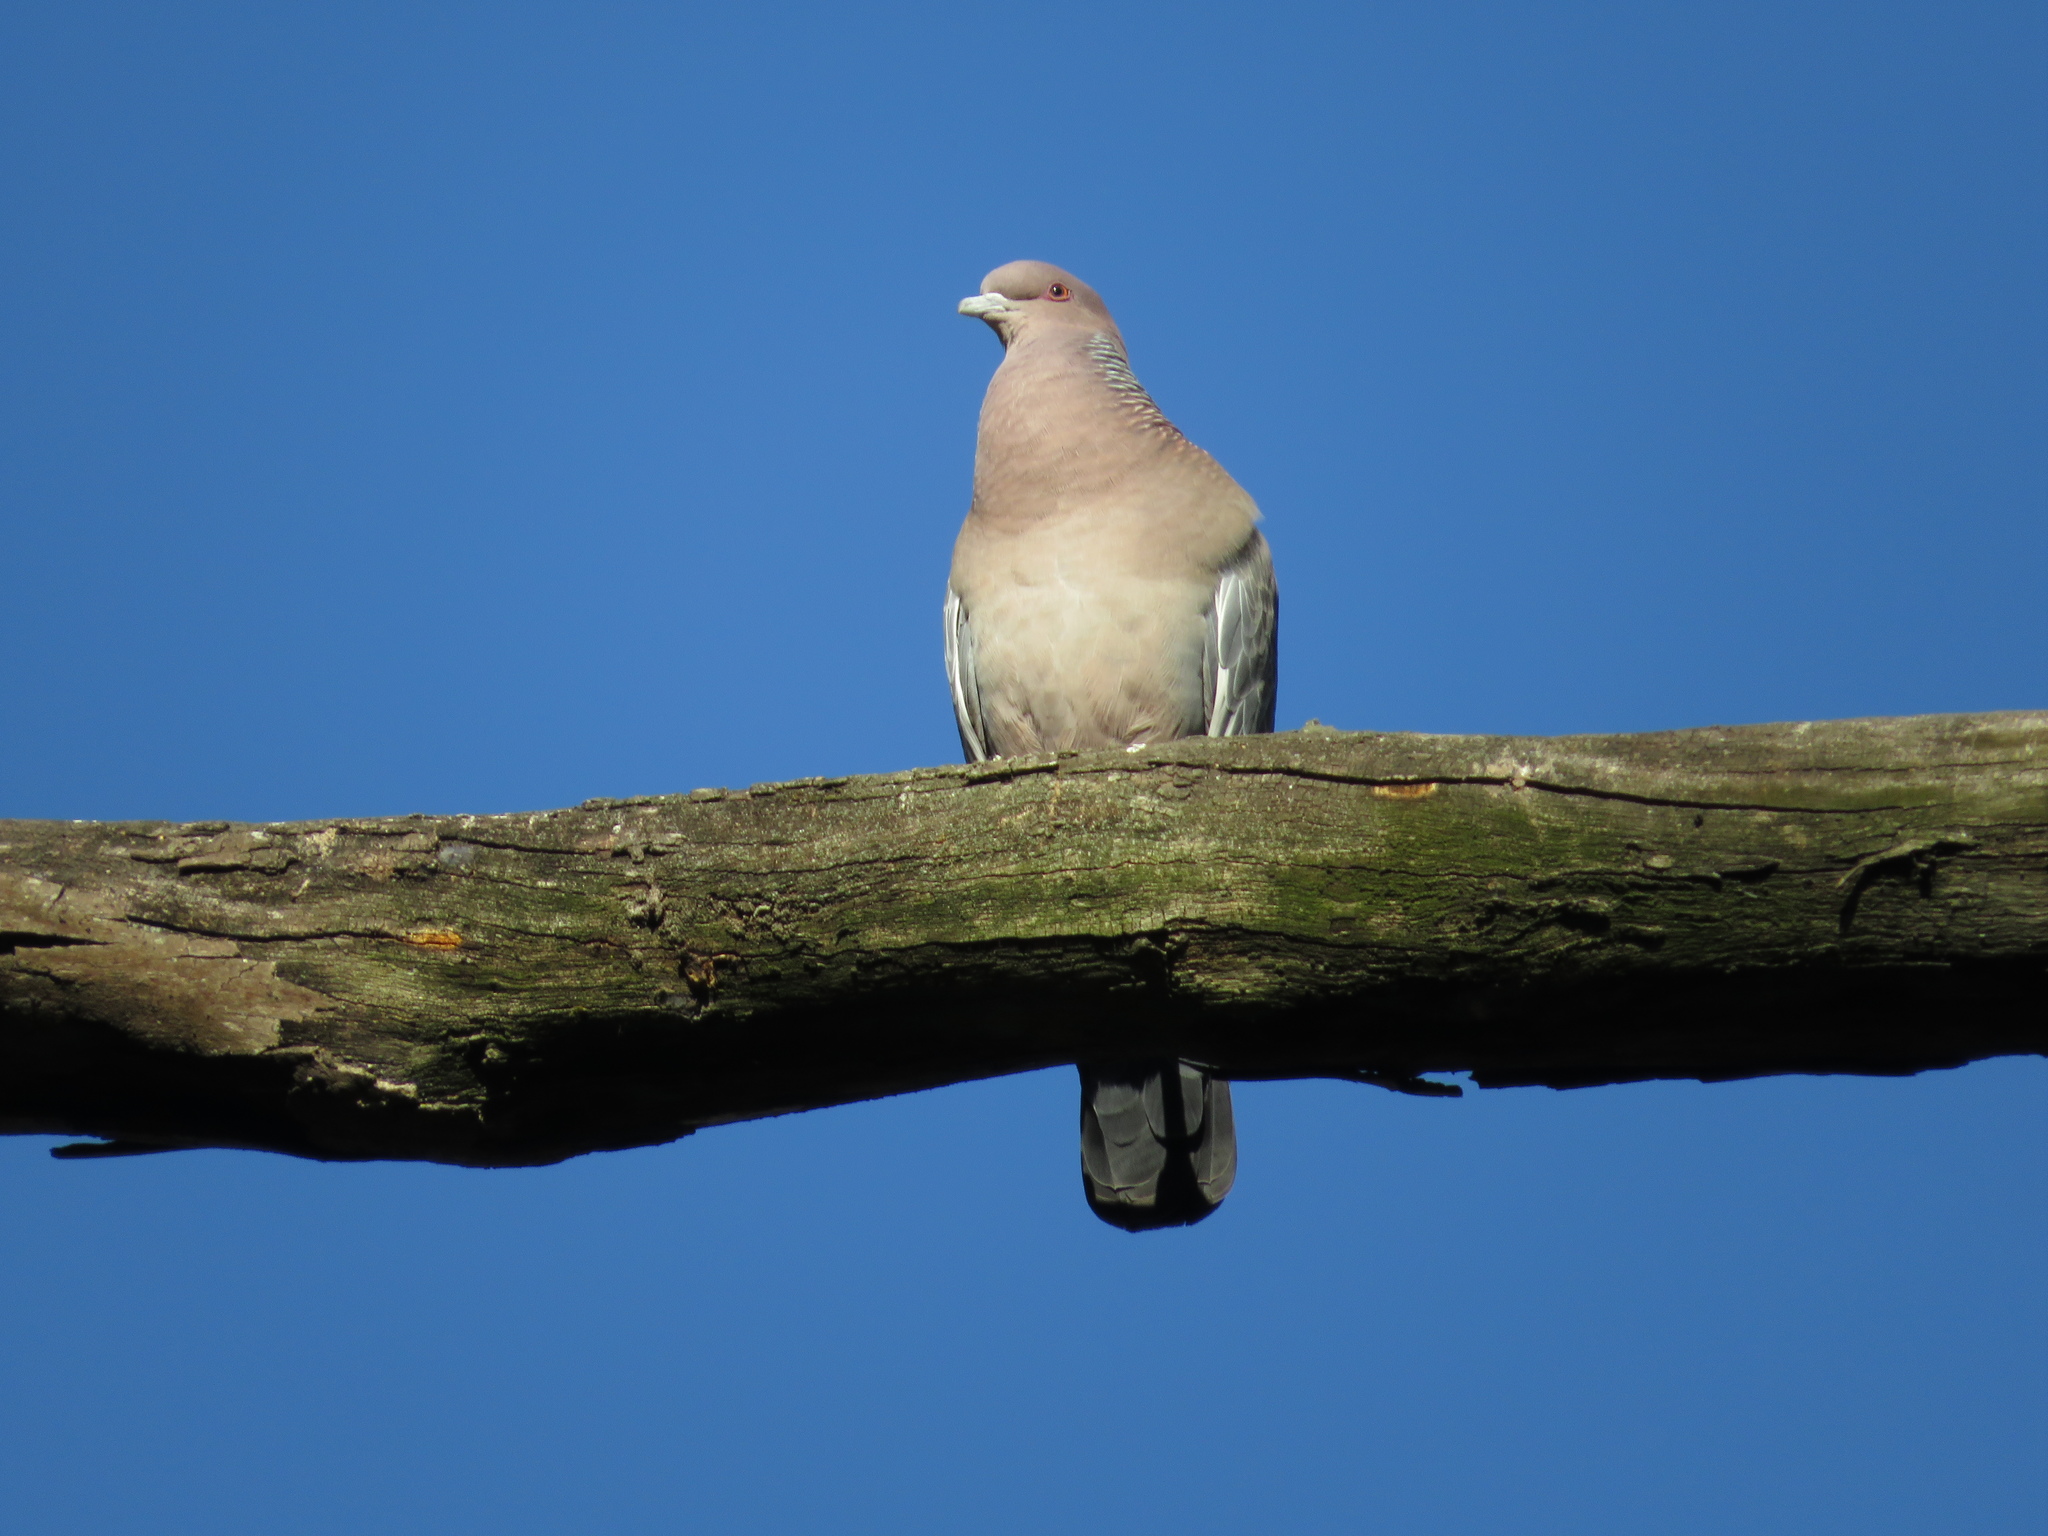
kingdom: Animalia
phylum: Chordata
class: Aves
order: Columbiformes
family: Columbidae
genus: Patagioenas
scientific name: Patagioenas picazuro
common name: Picazuro pigeon
